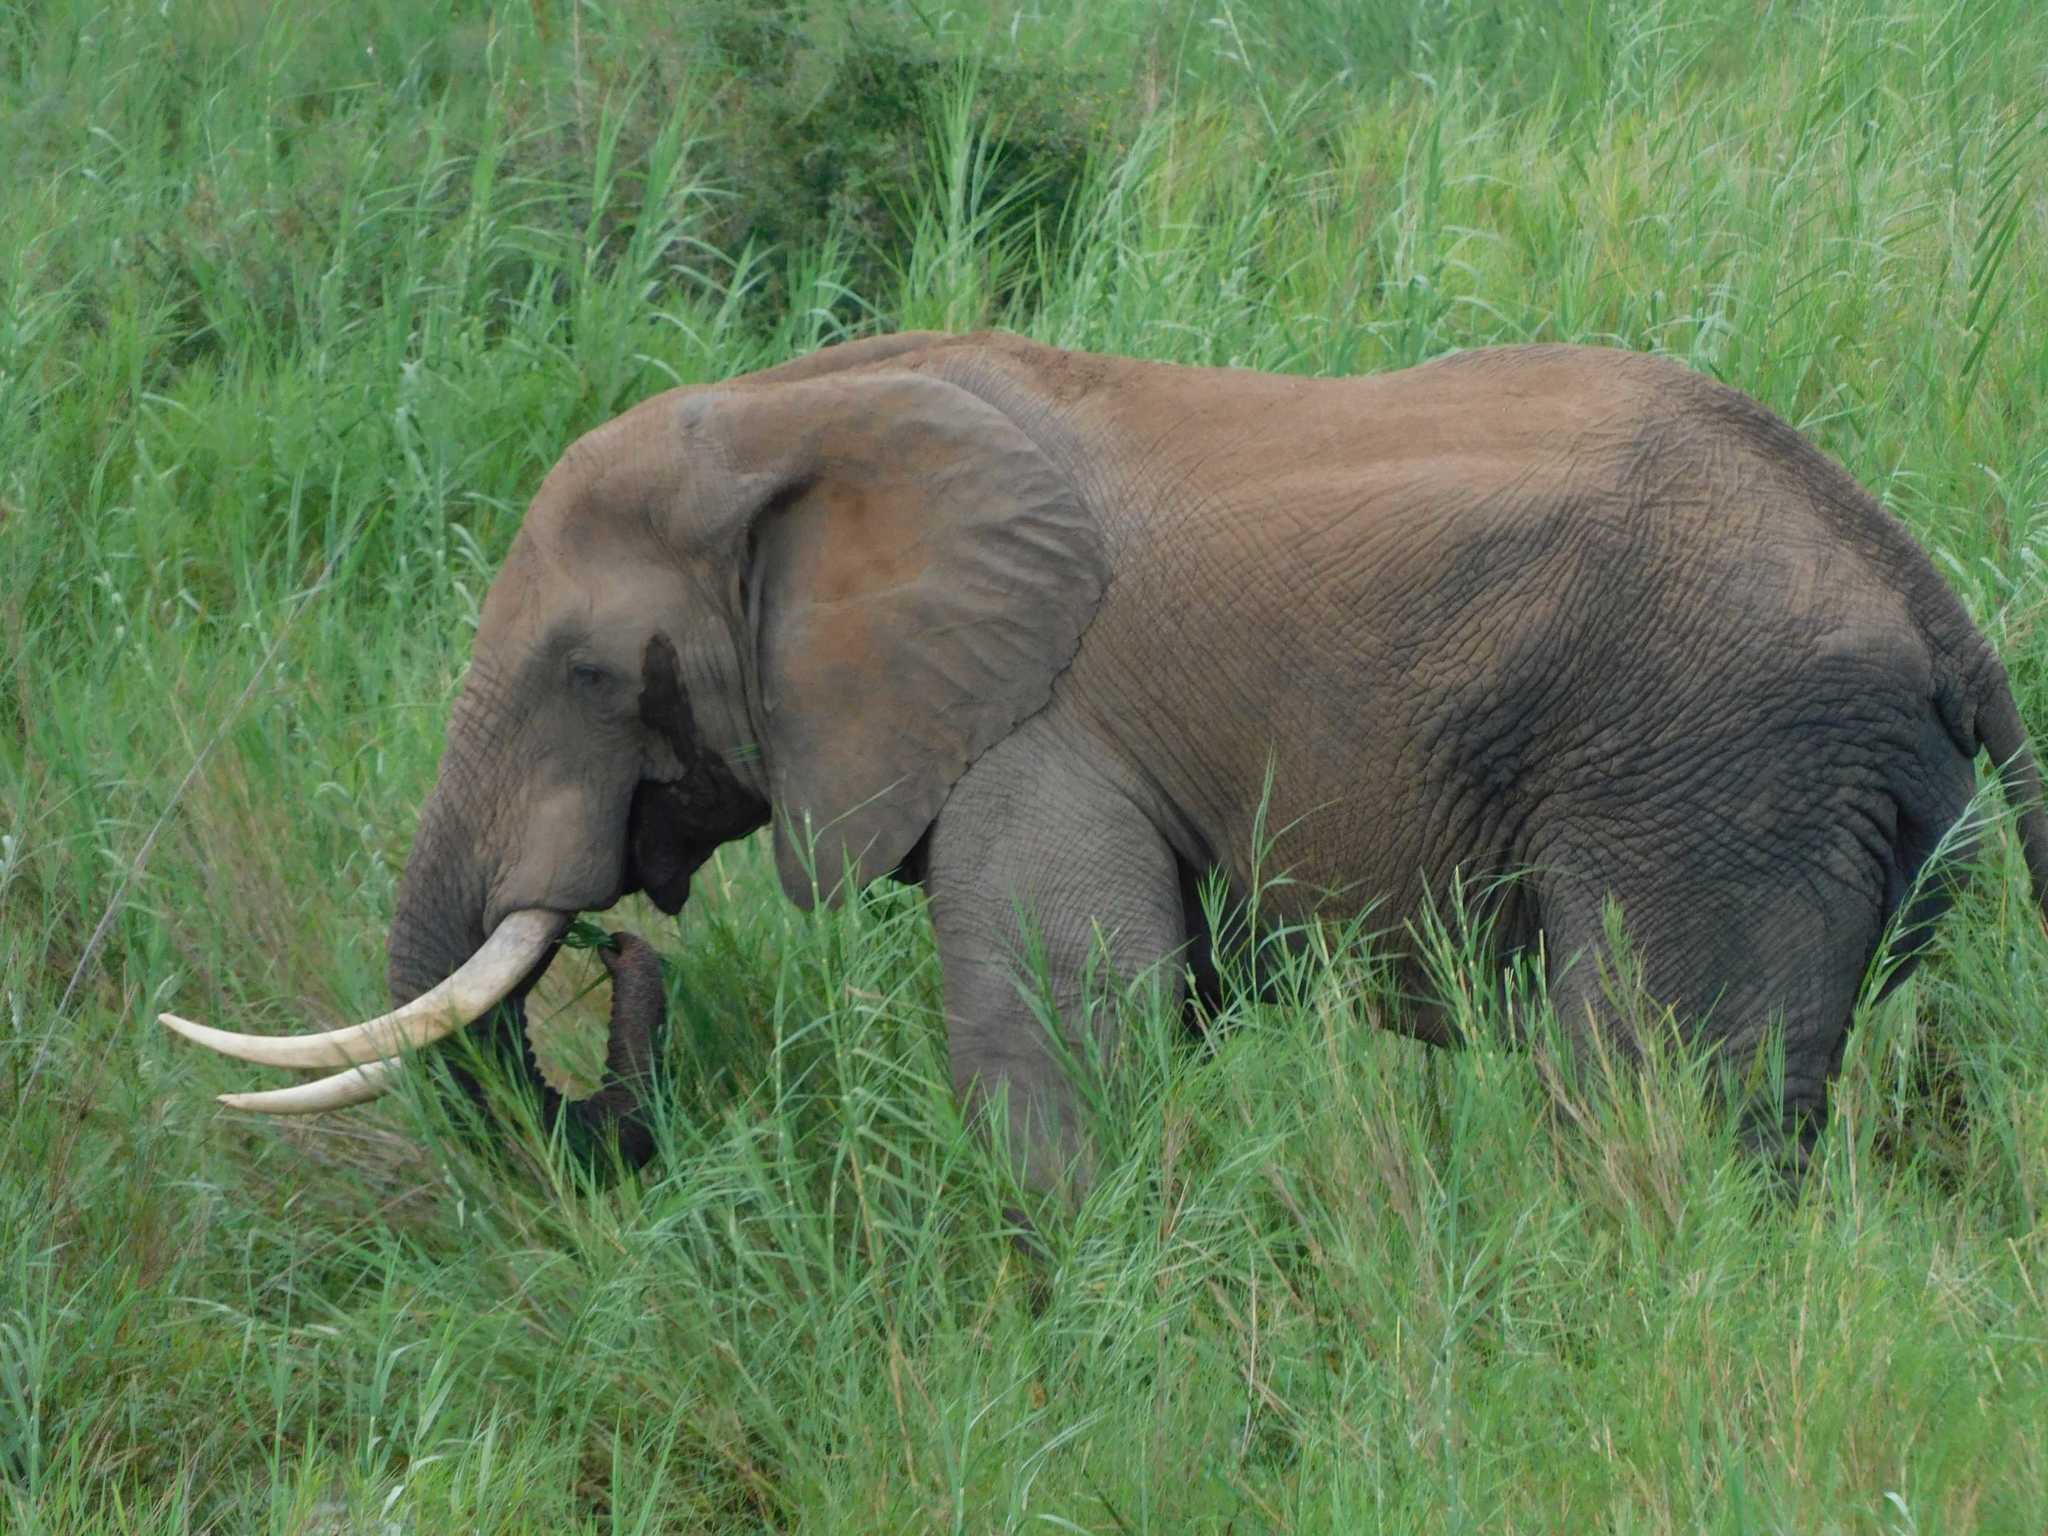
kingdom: Animalia
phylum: Chordata
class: Mammalia
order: Proboscidea
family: Elephantidae
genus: Loxodonta
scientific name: Loxodonta africana
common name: African elephant
